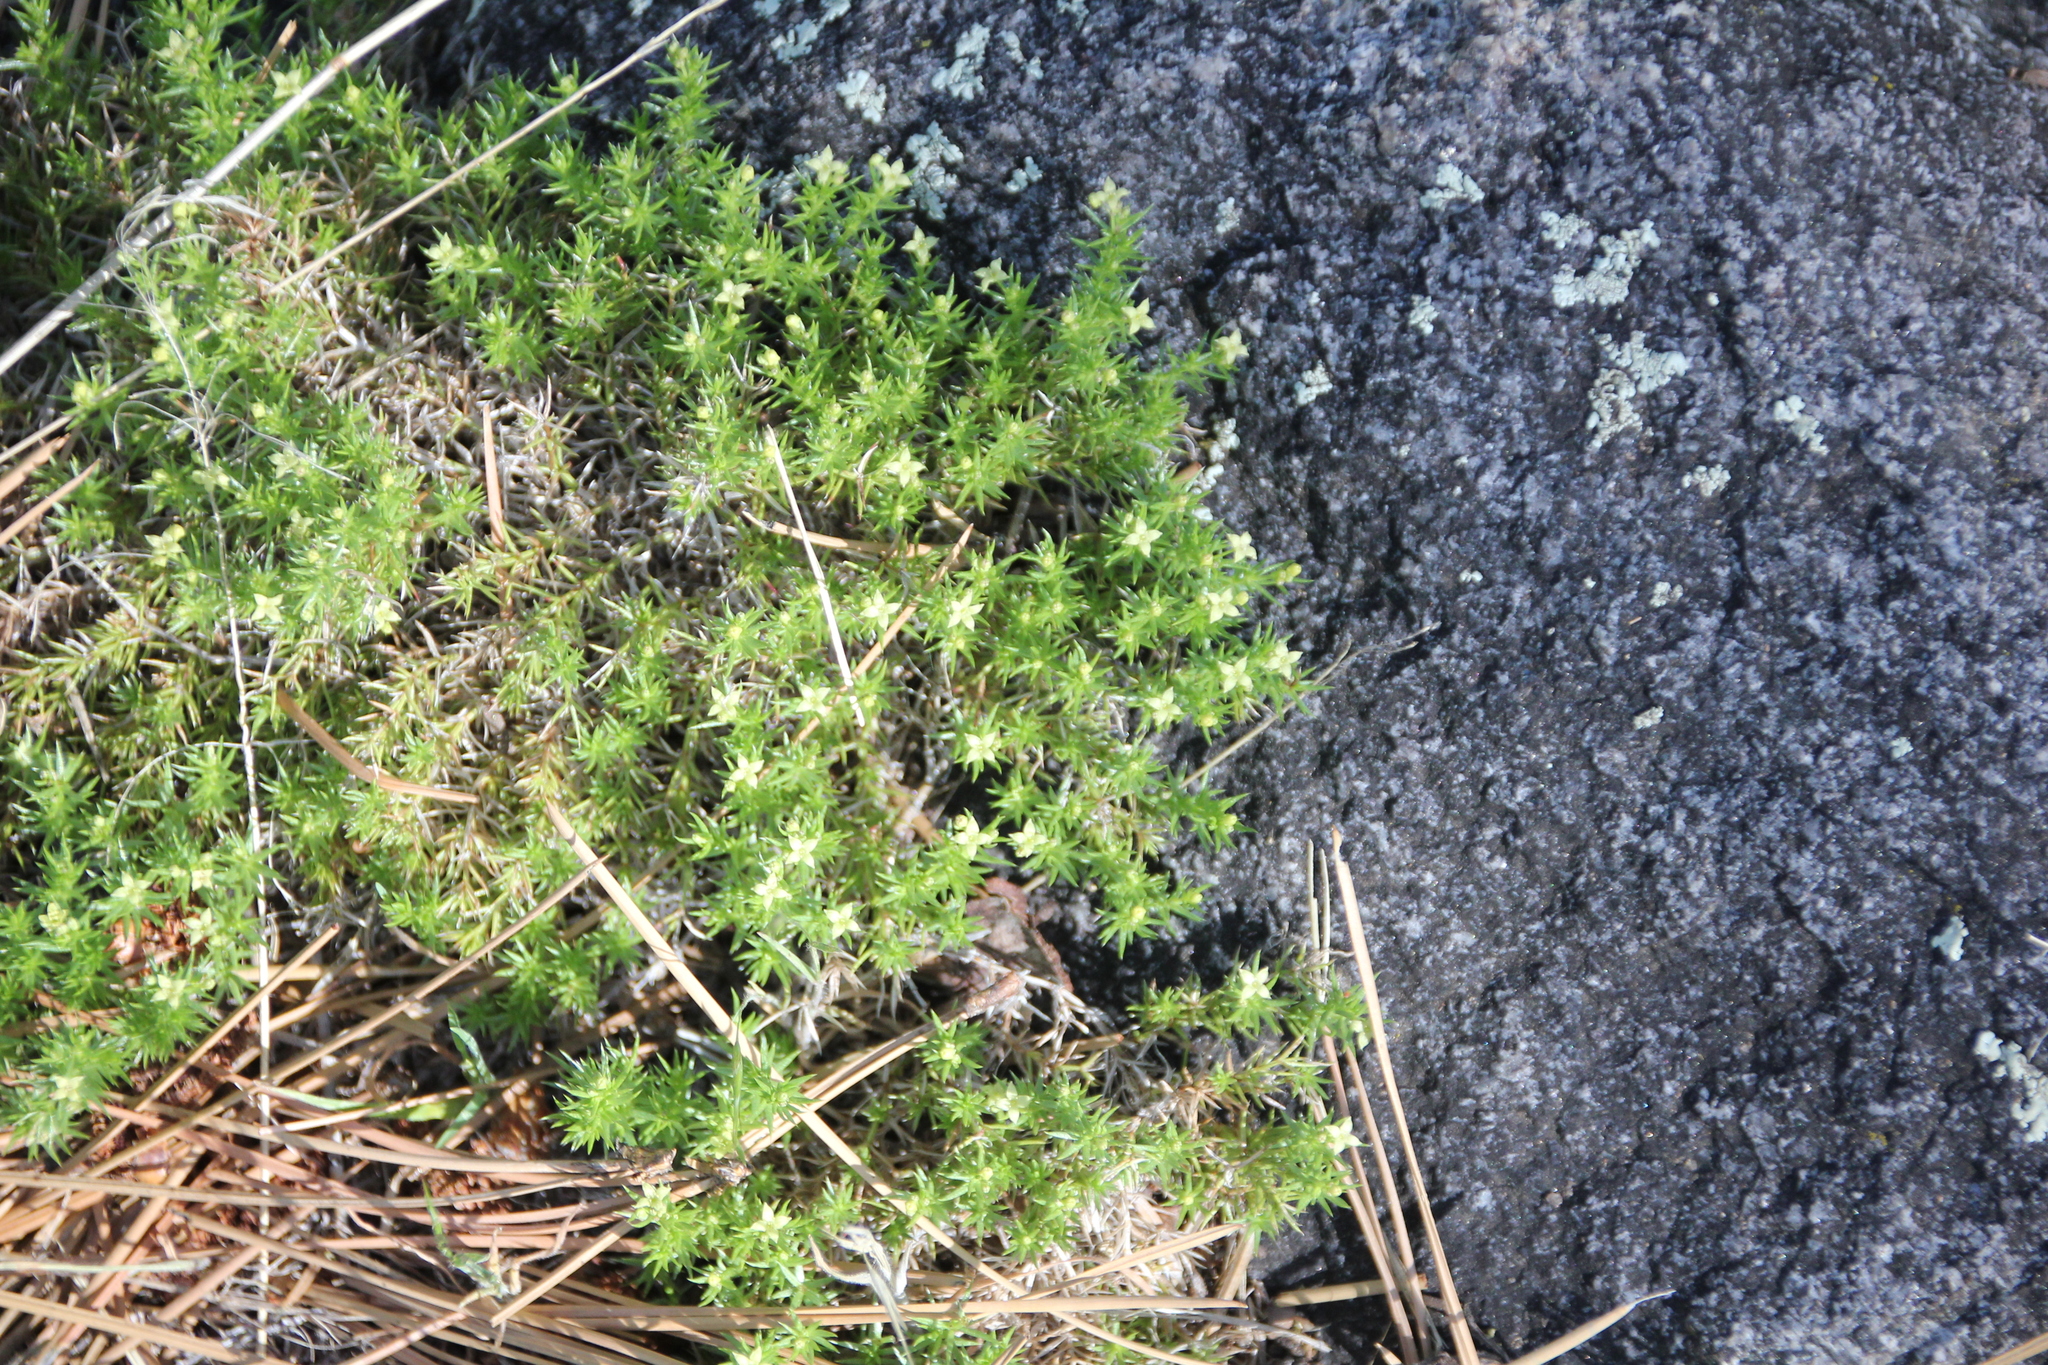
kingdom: Plantae
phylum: Tracheophyta
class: Magnoliopsida
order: Gentianales
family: Rubiaceae
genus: Galium
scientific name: Galium andrewsii
